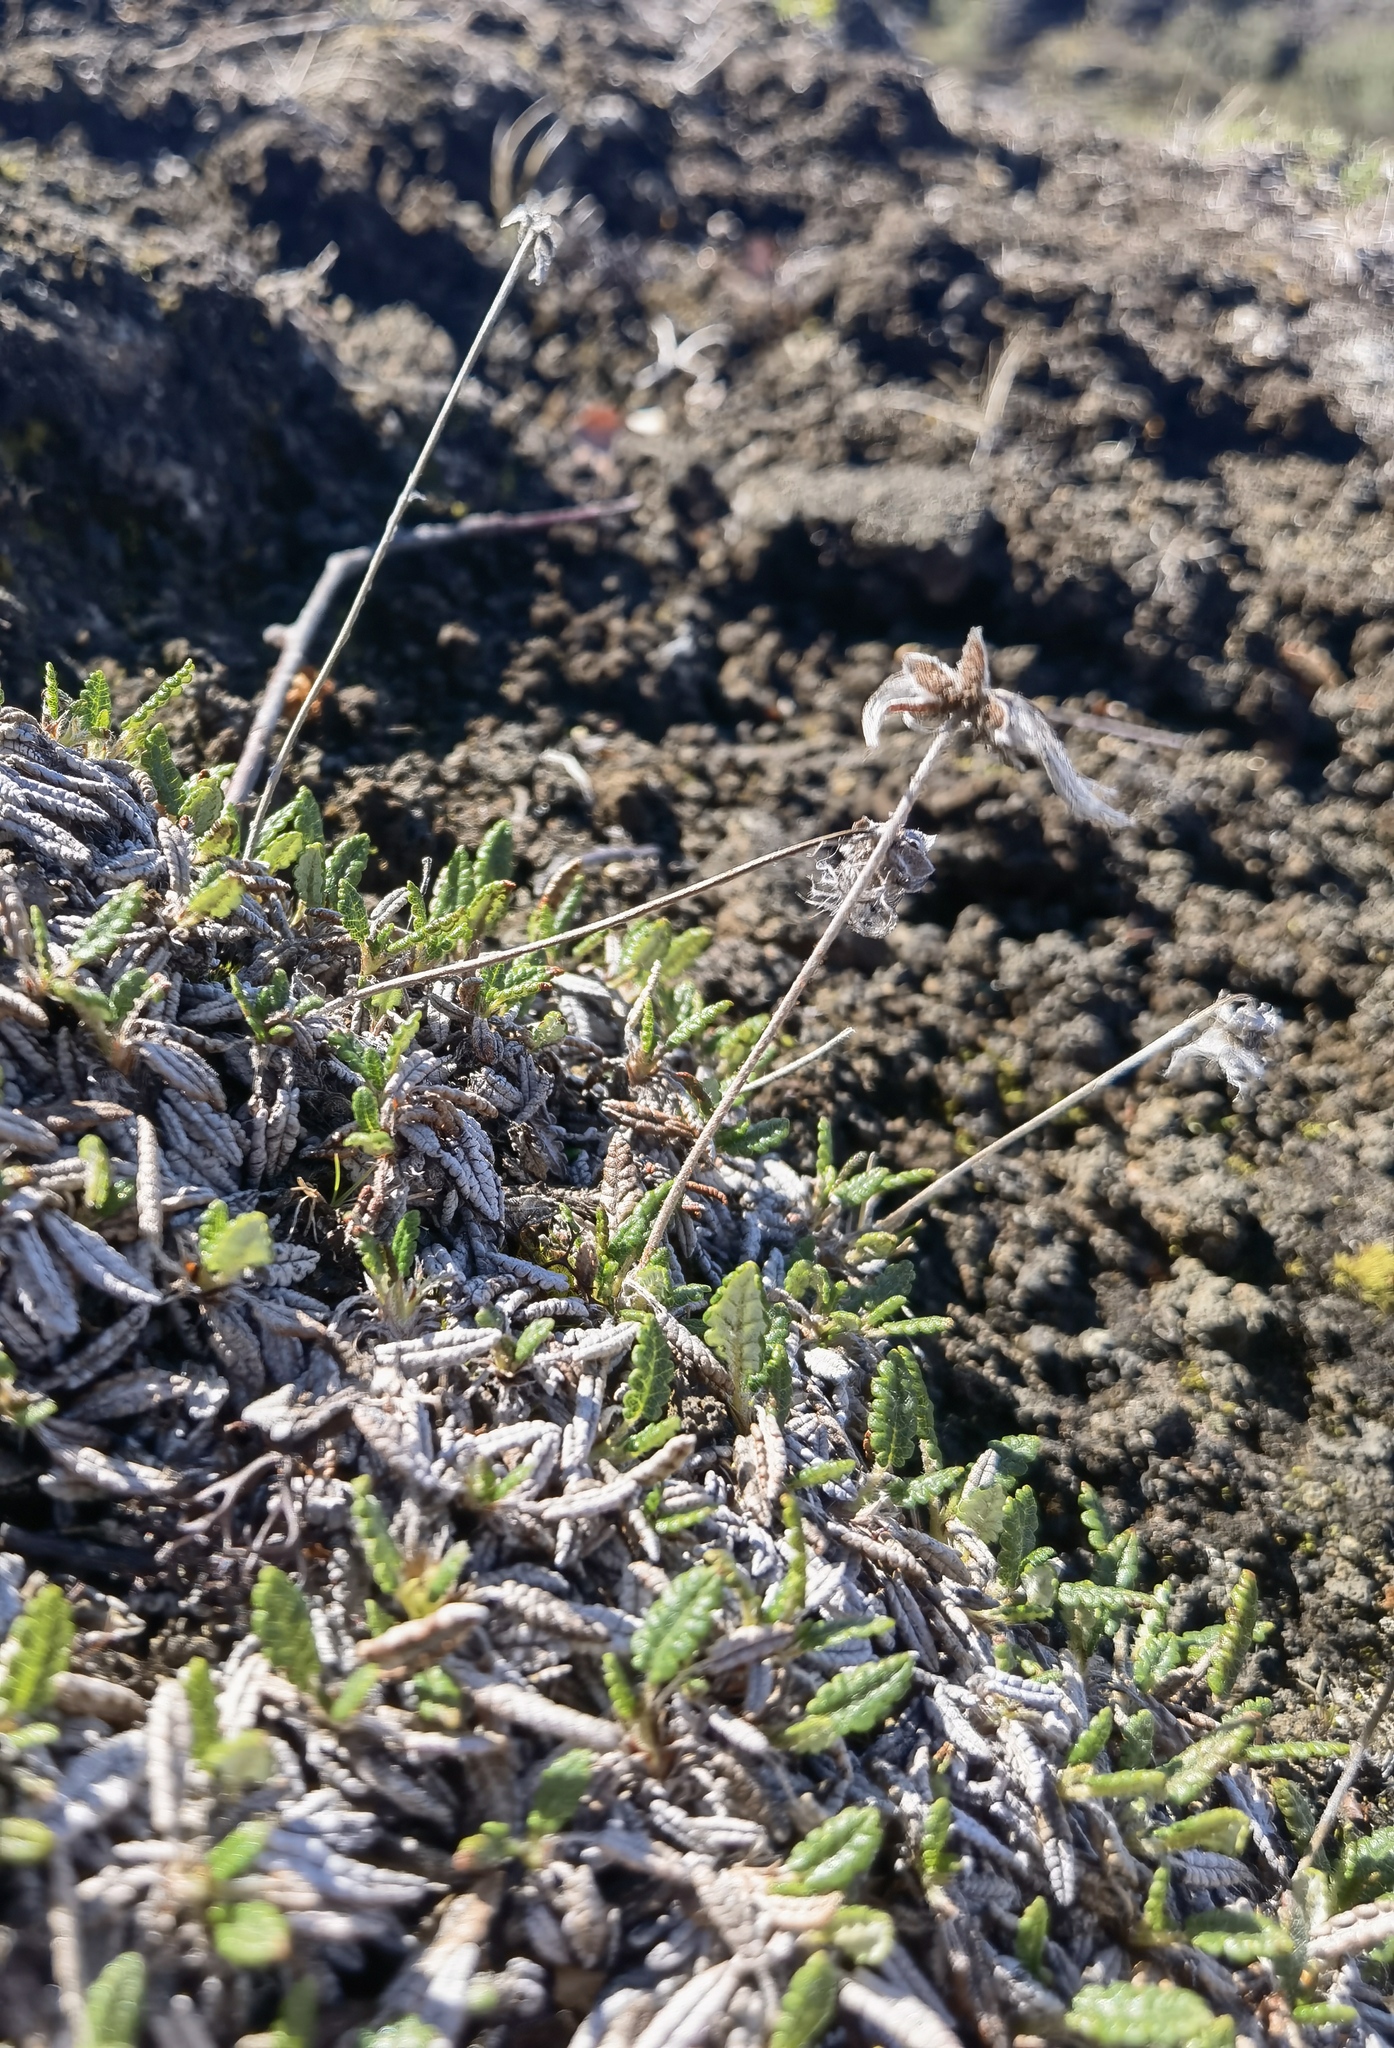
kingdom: Plantae
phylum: Tracheophyta
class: Magnoliopsida
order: Rosales
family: Rosaceae
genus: Dryas
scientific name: Dryas octopetala
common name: Eight-petal mountain-avens
